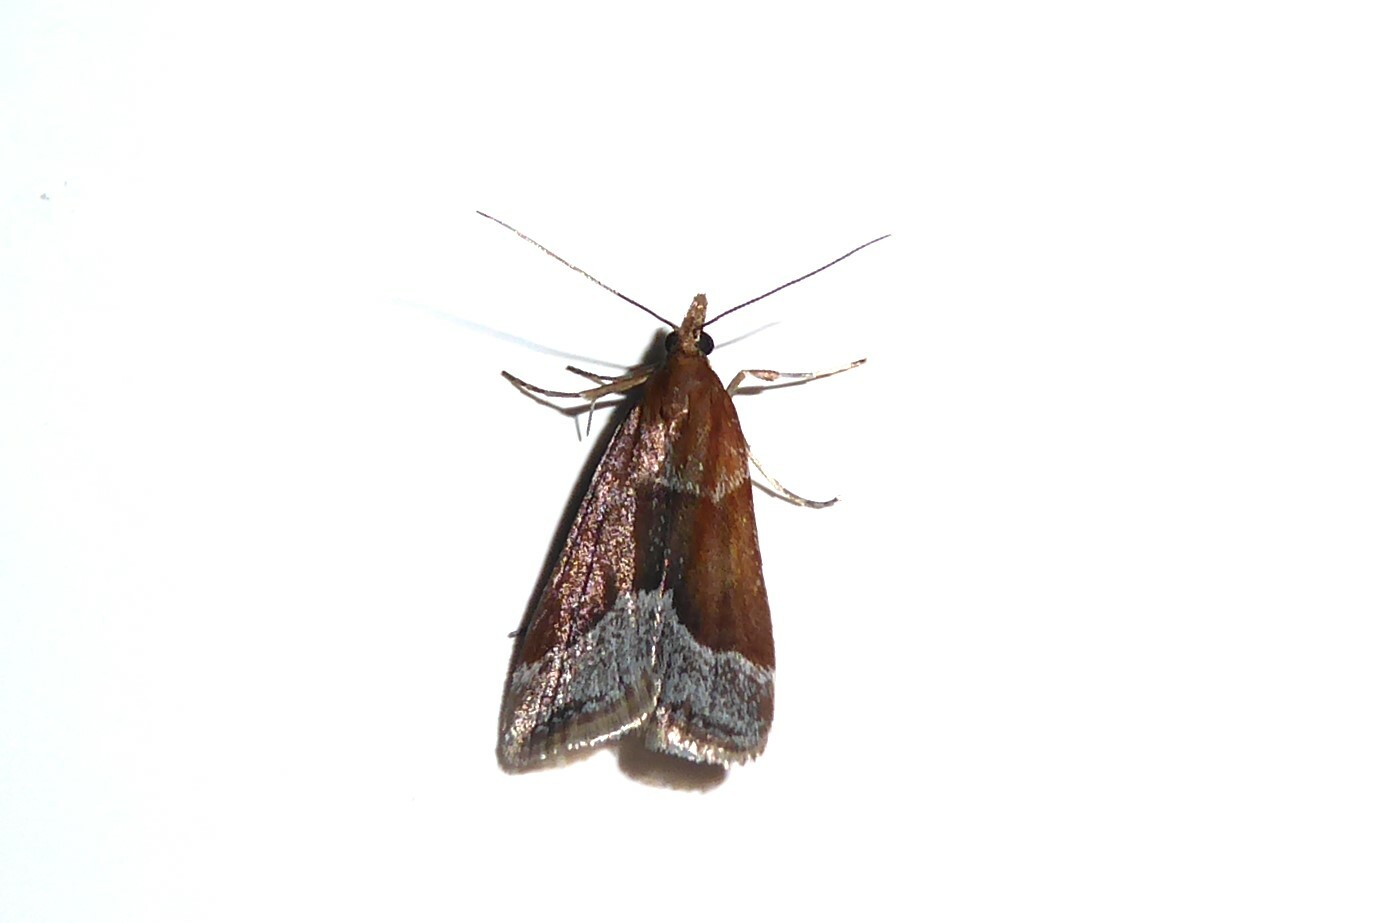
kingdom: Animalia
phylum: Arthropoda
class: Insecta
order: Lepidoptera
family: Crambidae
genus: Eudonia
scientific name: Eudonia feredayi
